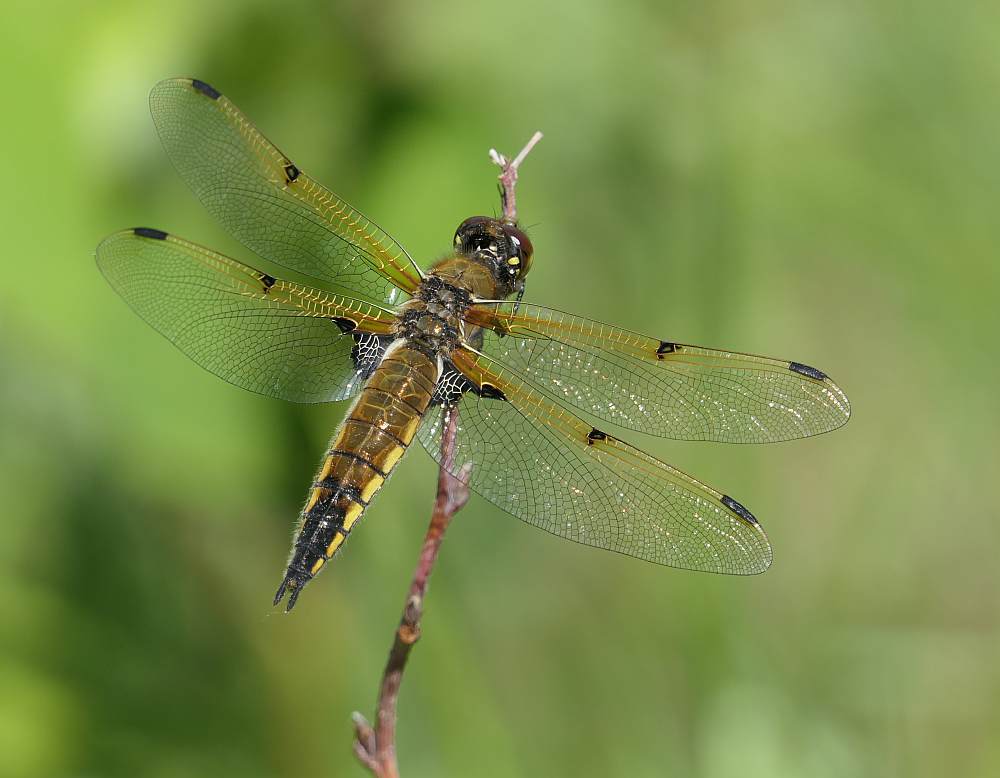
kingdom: Animalia
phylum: Arthropoda
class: Insecta
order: Odonata
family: Libellulidae
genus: Libellula
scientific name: Libellula quadrimaculata
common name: Four-spotted chaser
